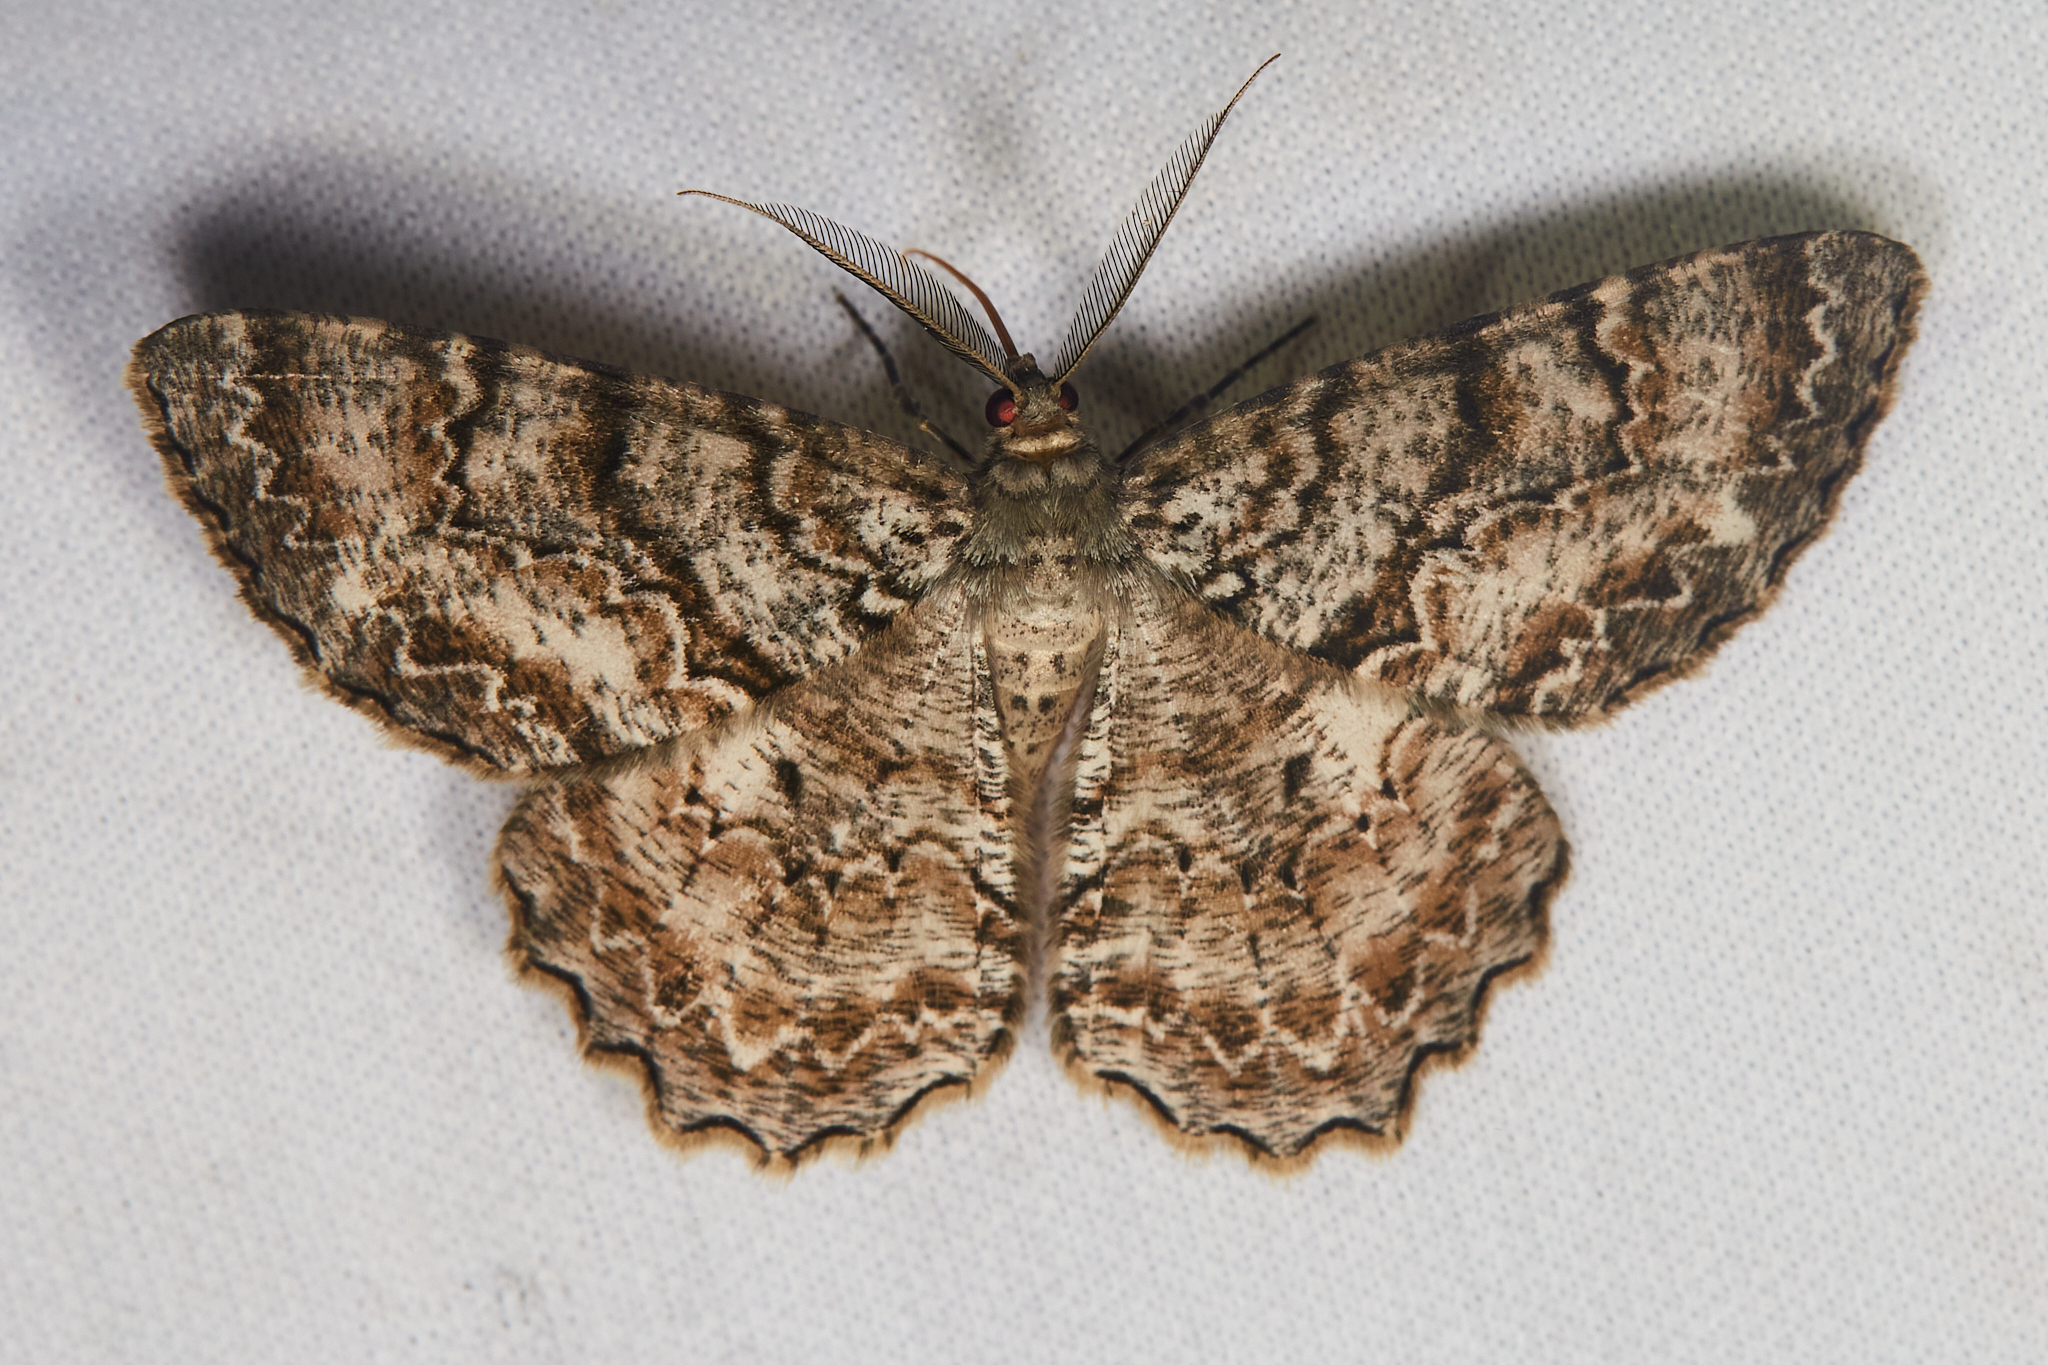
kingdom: Animalia
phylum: Arthropoda
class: Insecta
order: Lepidoptera
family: Geometridae
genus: Epimecis
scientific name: Epimecis hortaria
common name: Tulip-tree beauty
